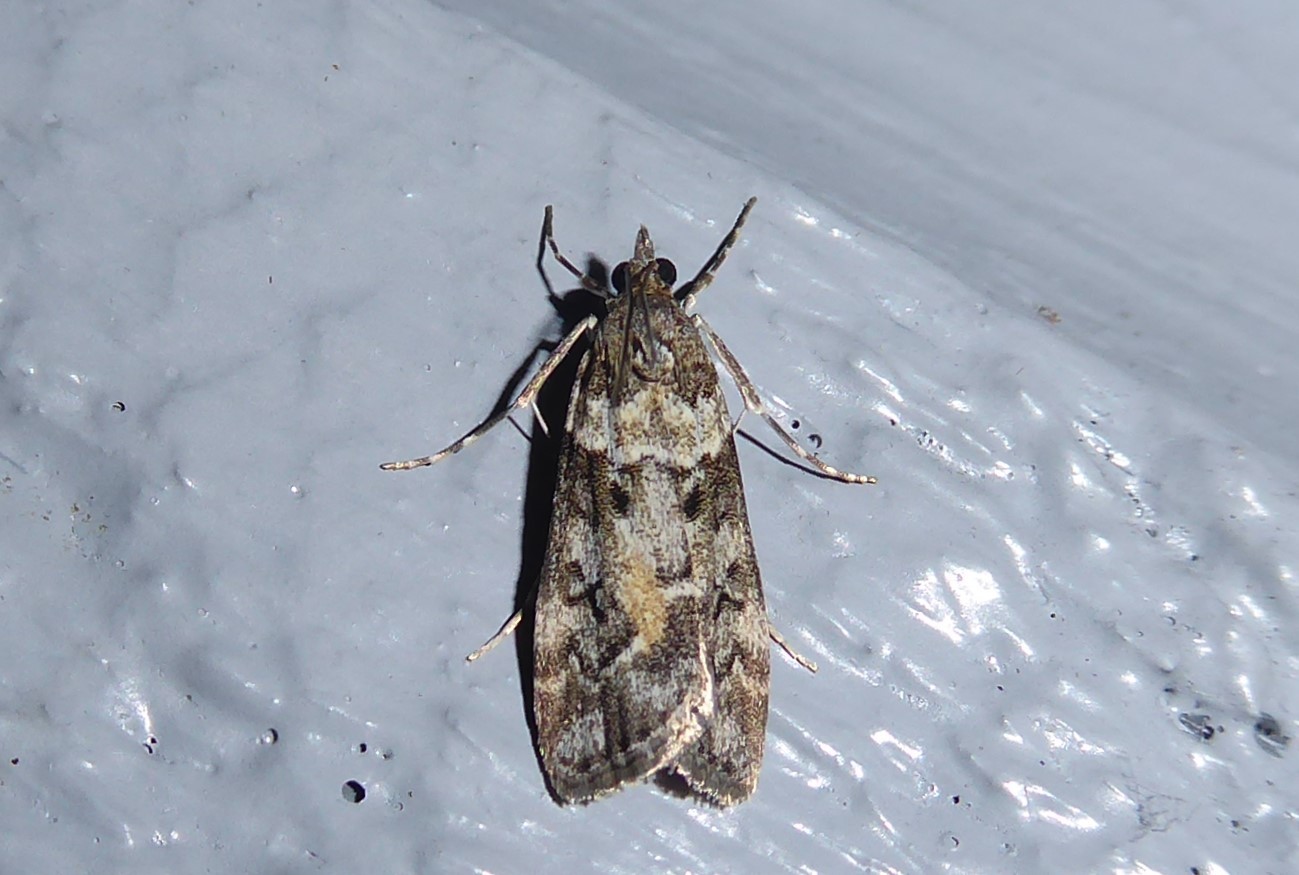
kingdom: Animalia
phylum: Arthropoda
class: Insecta
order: Lepidoptera
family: Crambidae
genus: Eudonia
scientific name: Eudonia submarginalis
